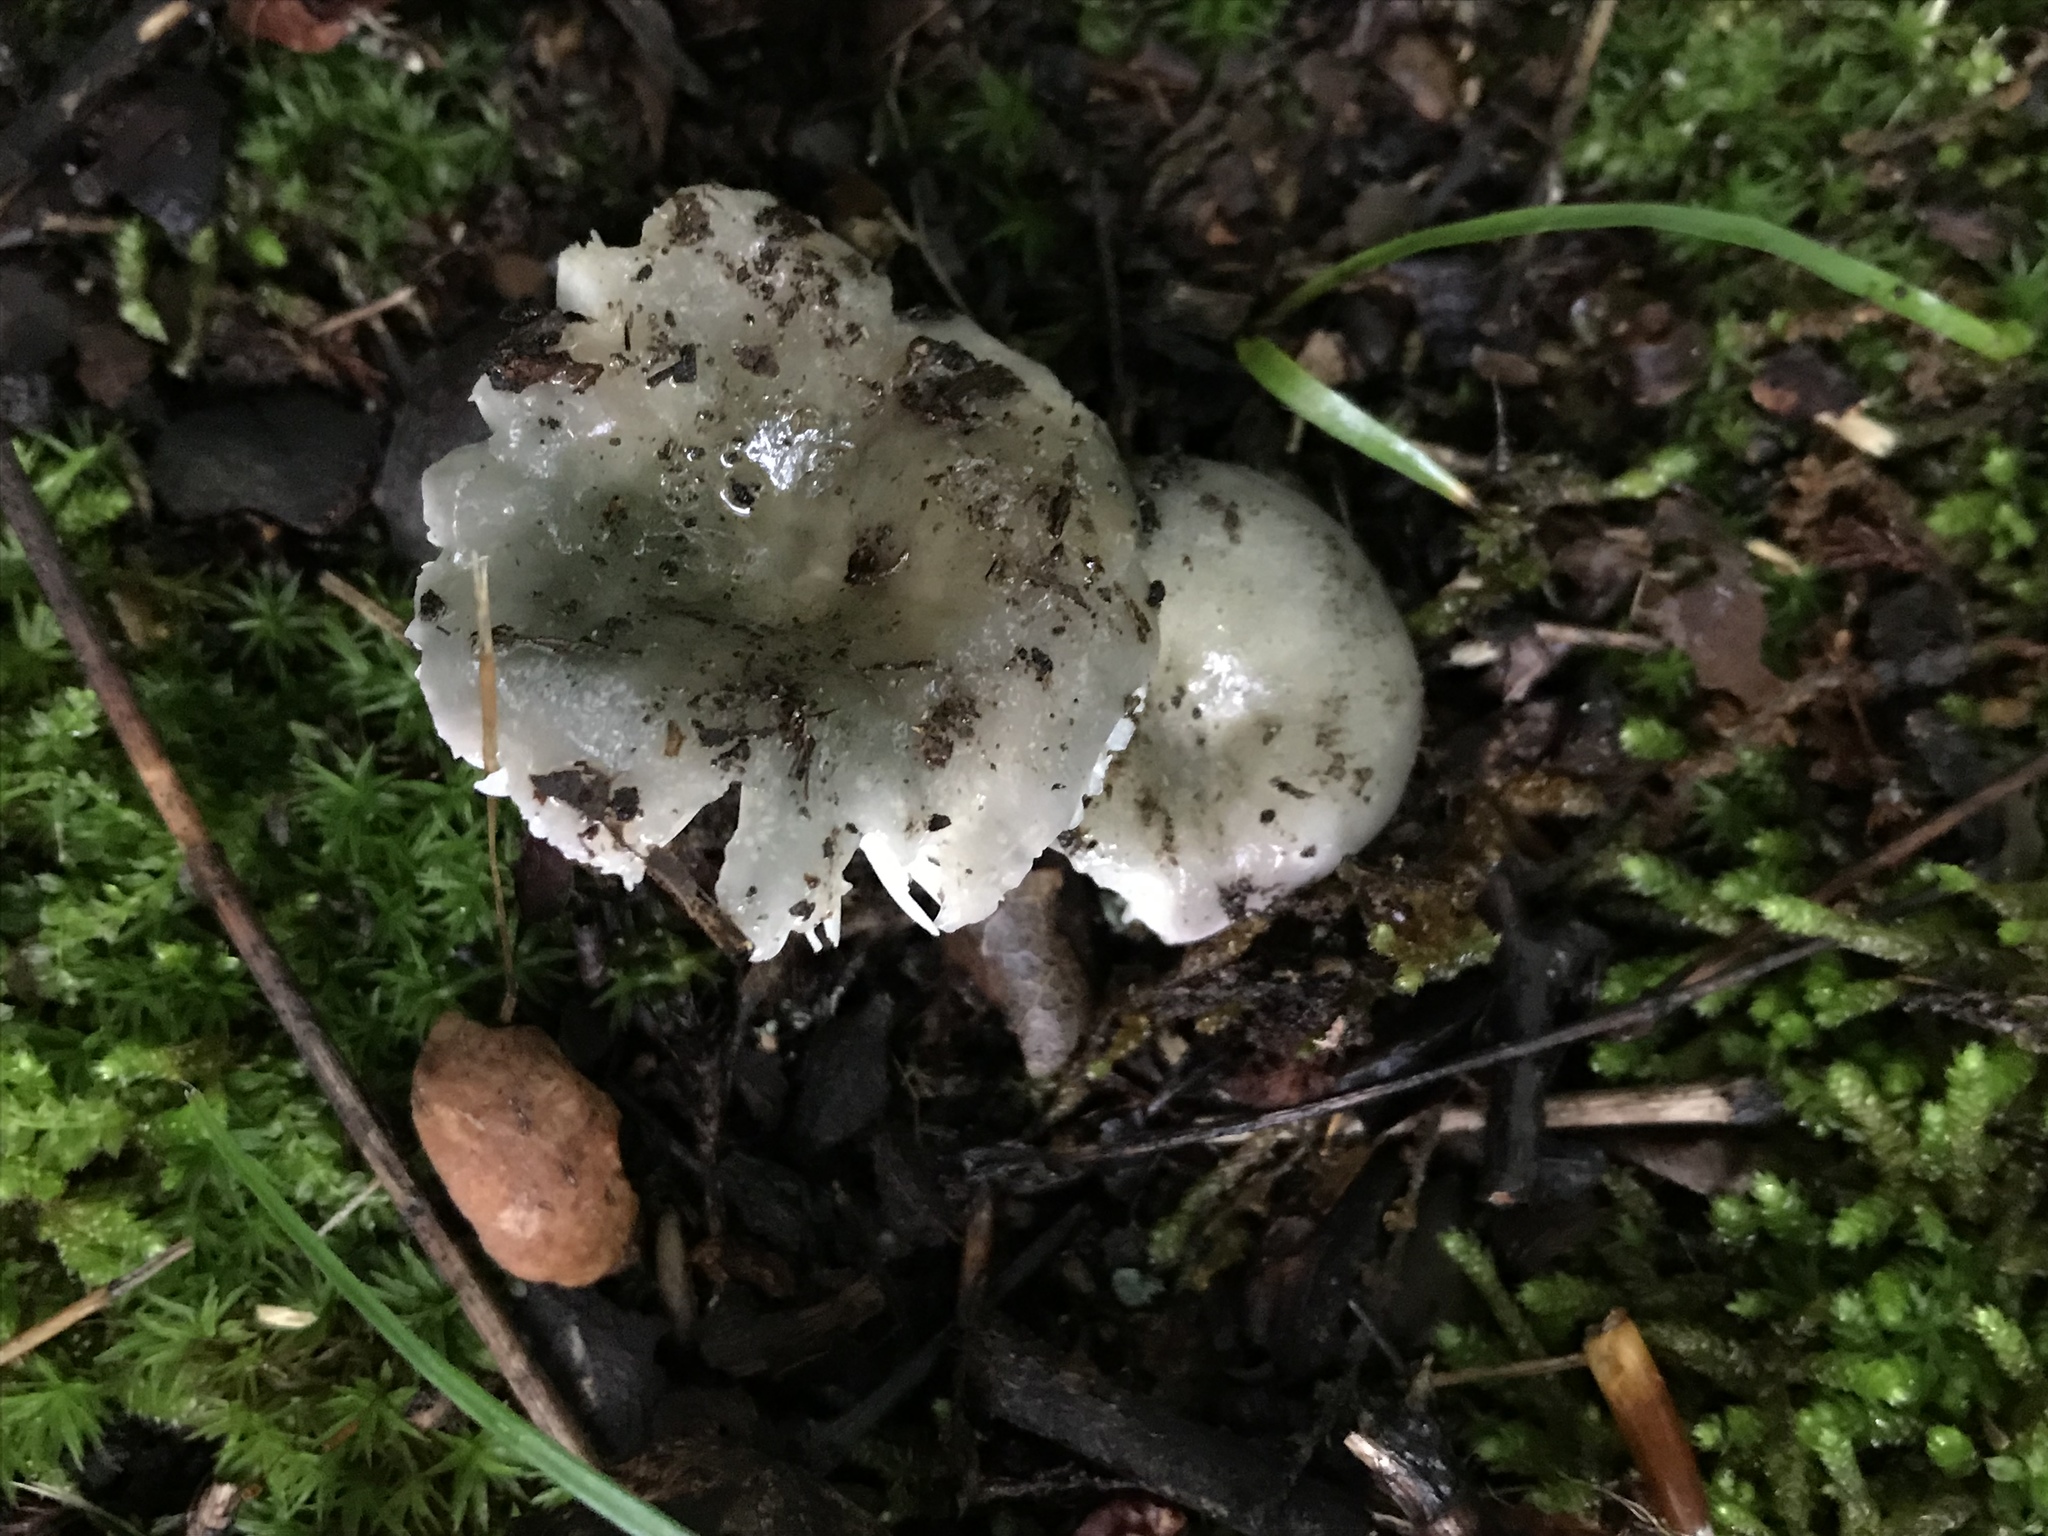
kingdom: Fungi
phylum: Basidiomycota
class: Agaricomycetes
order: Russulales
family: Russulaceae
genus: Russula
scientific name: Russula redolens
